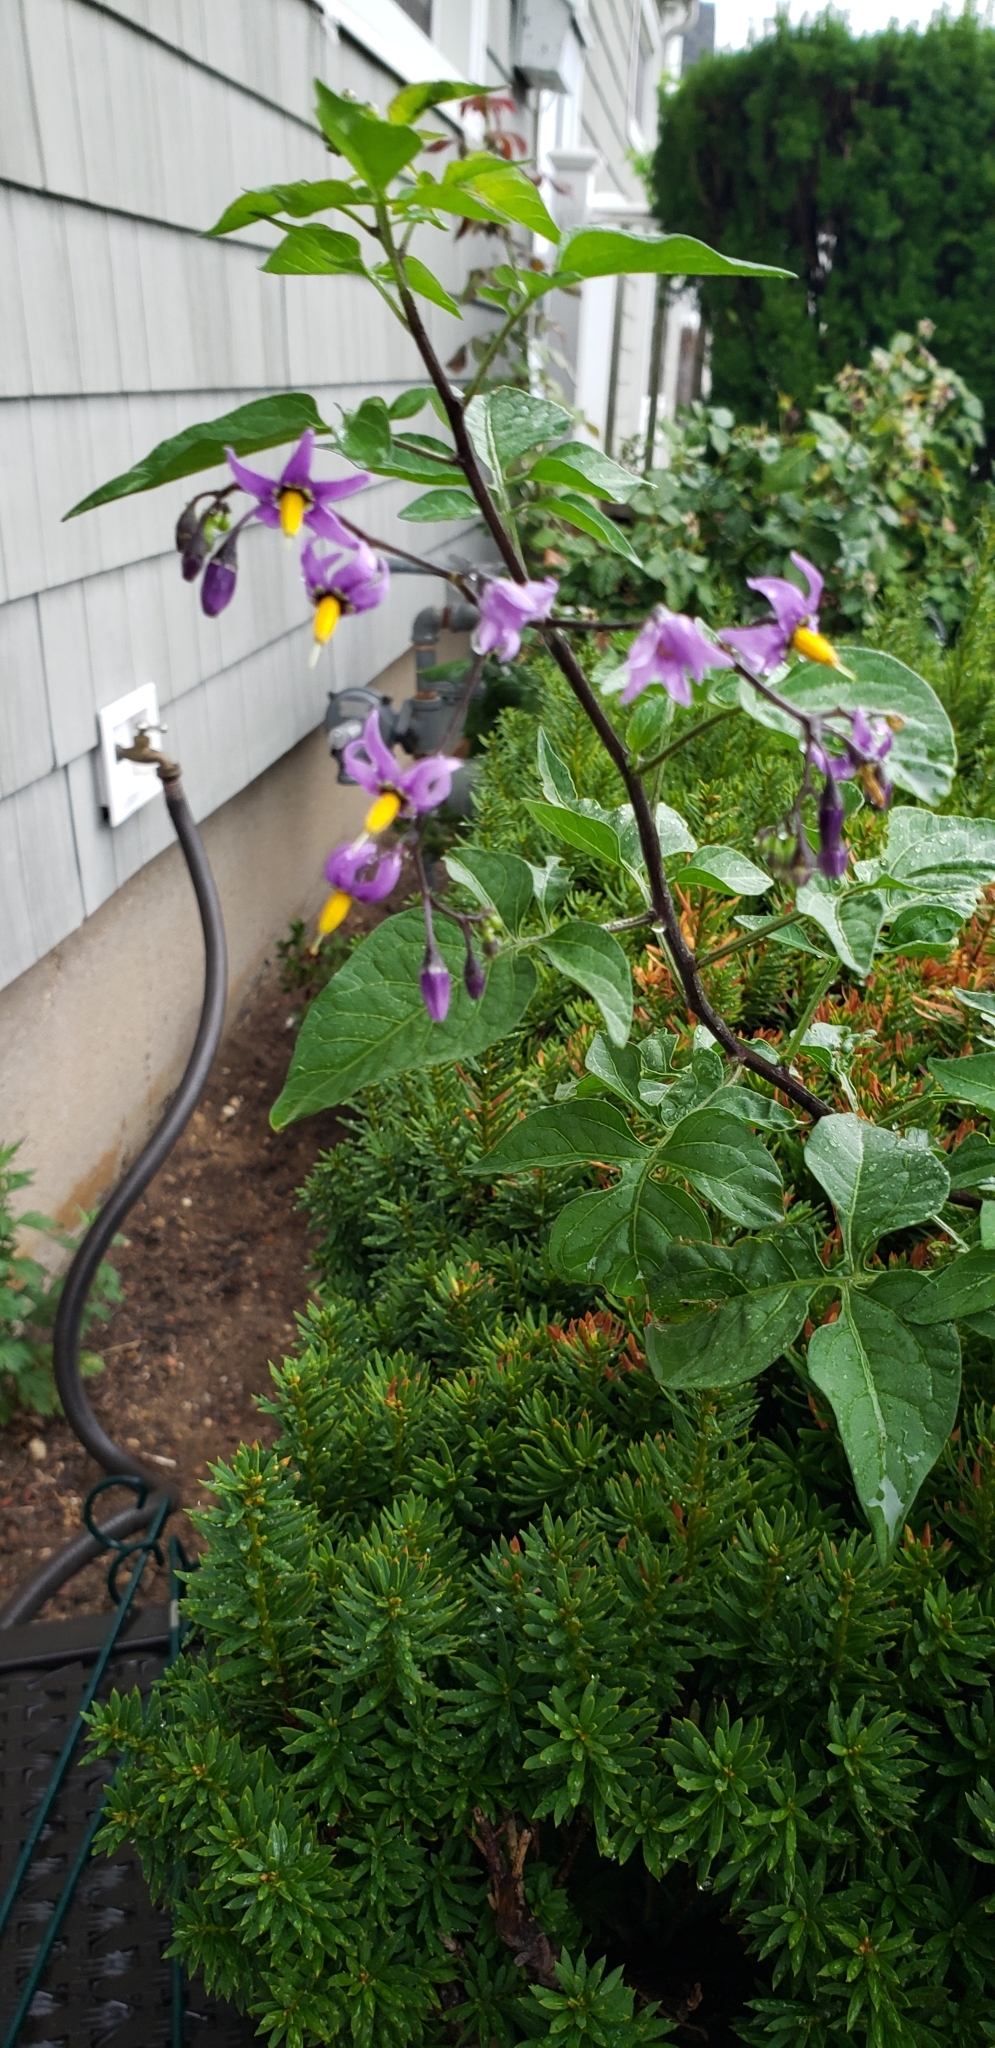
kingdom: Plantae
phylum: Tracheophyta
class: Magnoliopsida
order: Solanales
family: Solanaceae
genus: Solanum
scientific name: Solanum dulcamara
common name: Climbing nightshade
